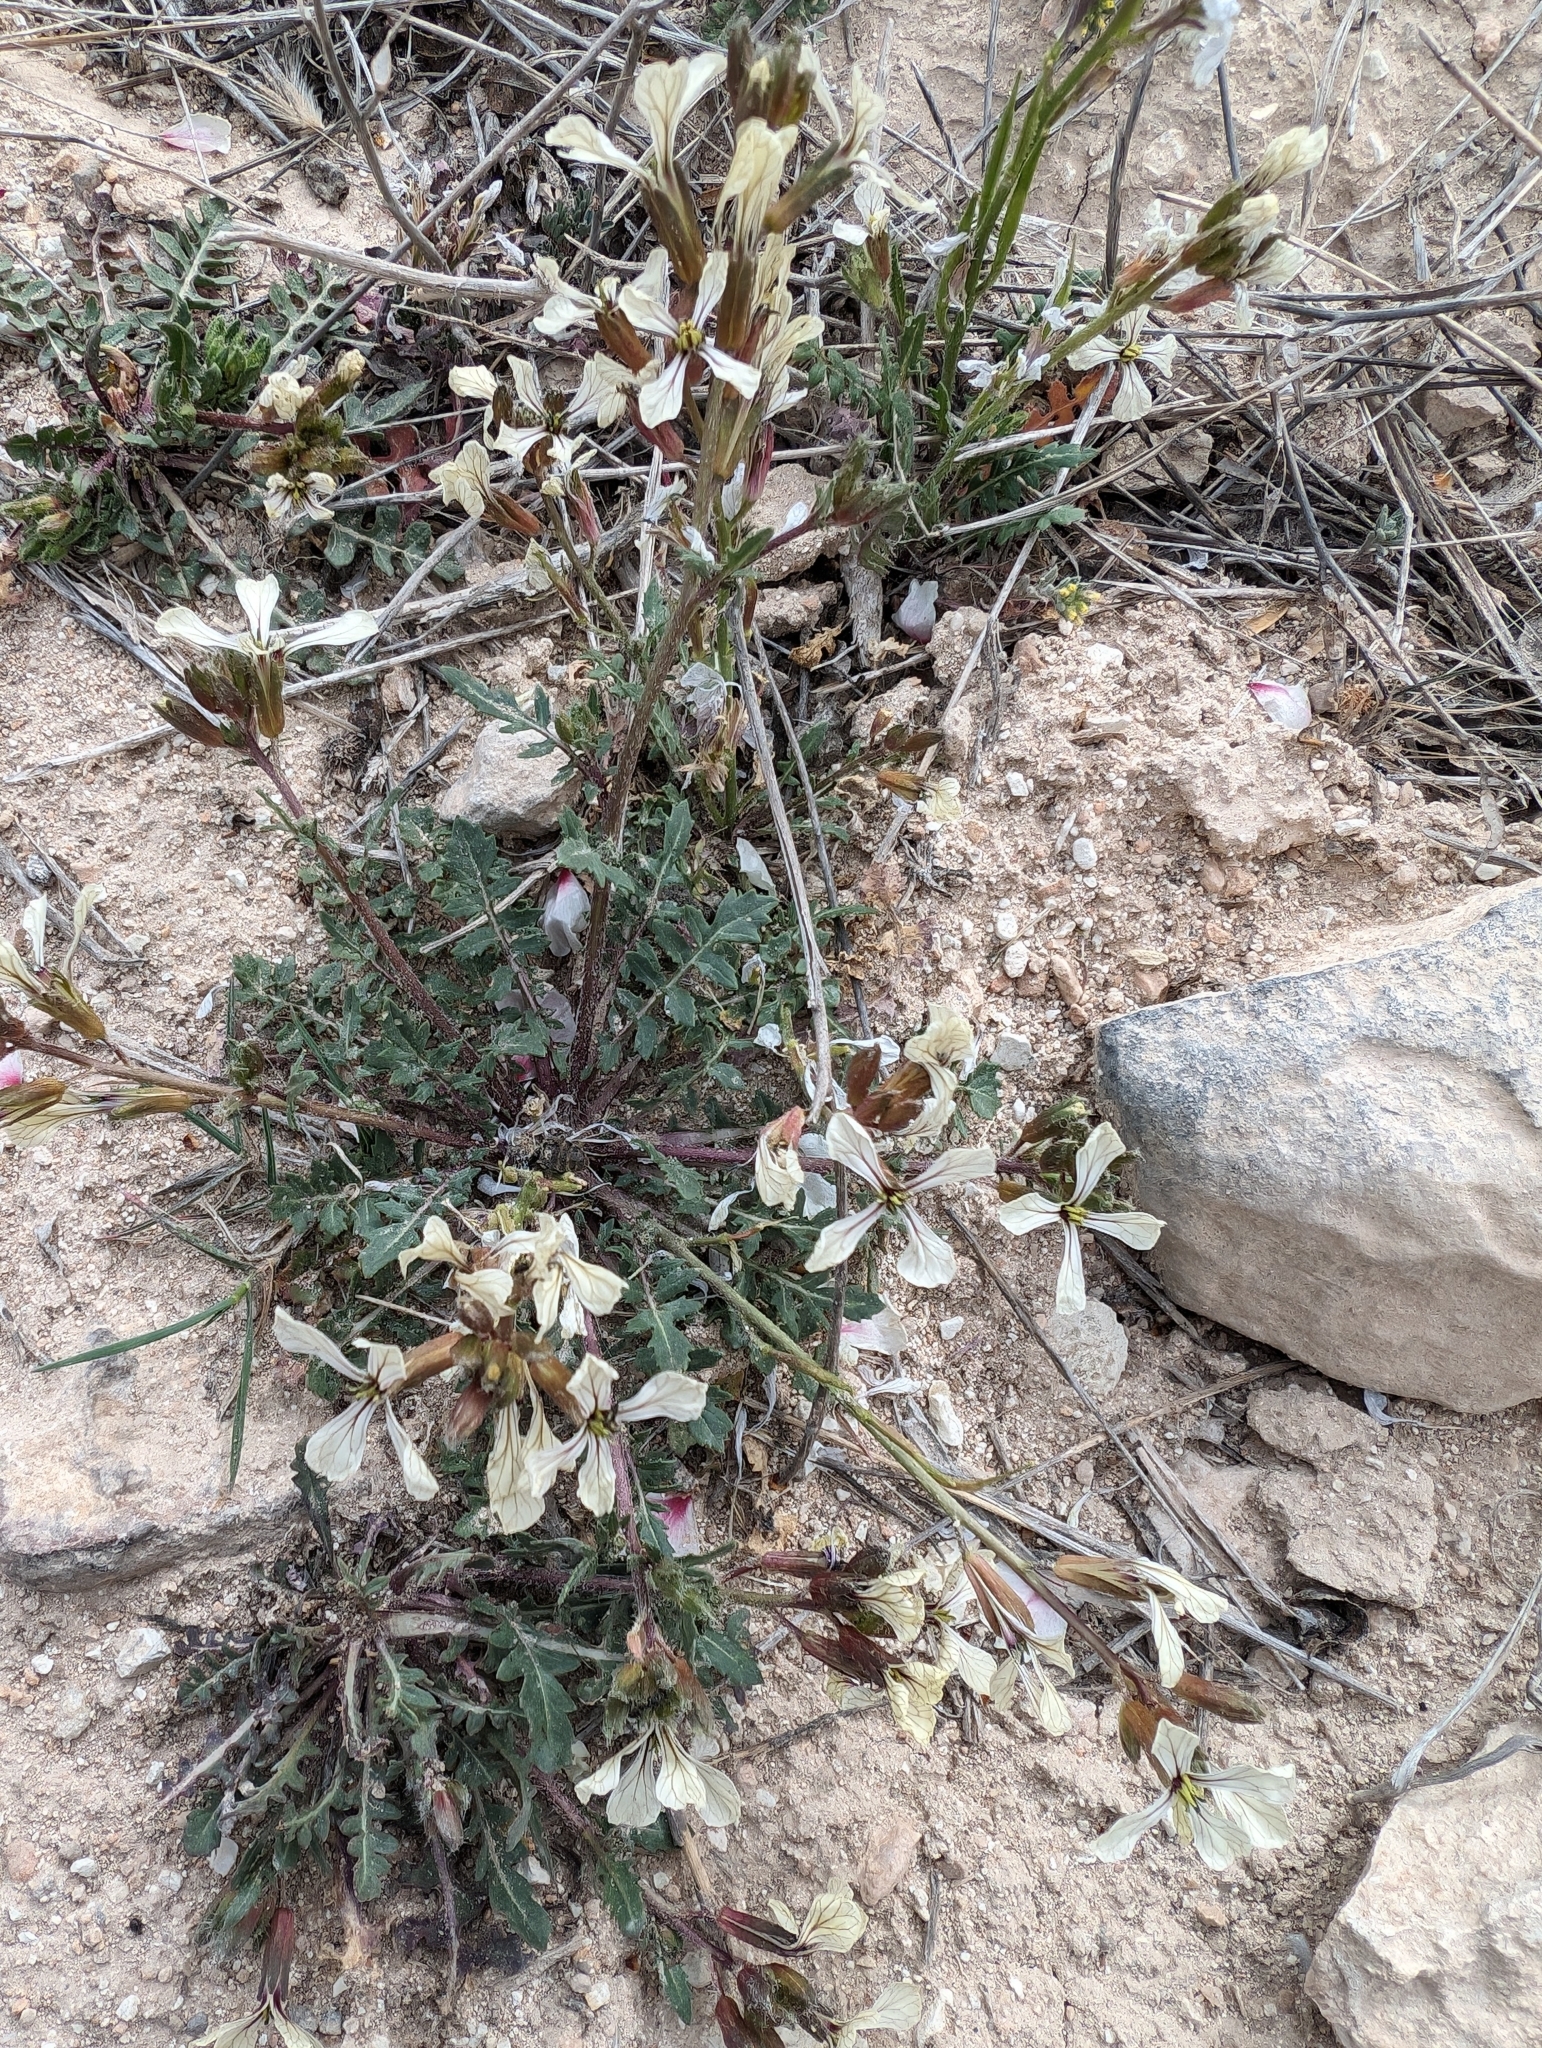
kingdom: Plantae
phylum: Tracheophyta
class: Magnoliopsida
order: Brassicales
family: Brassicaceae
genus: Eruca
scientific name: Eruca vesicaria
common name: Garden rocket
